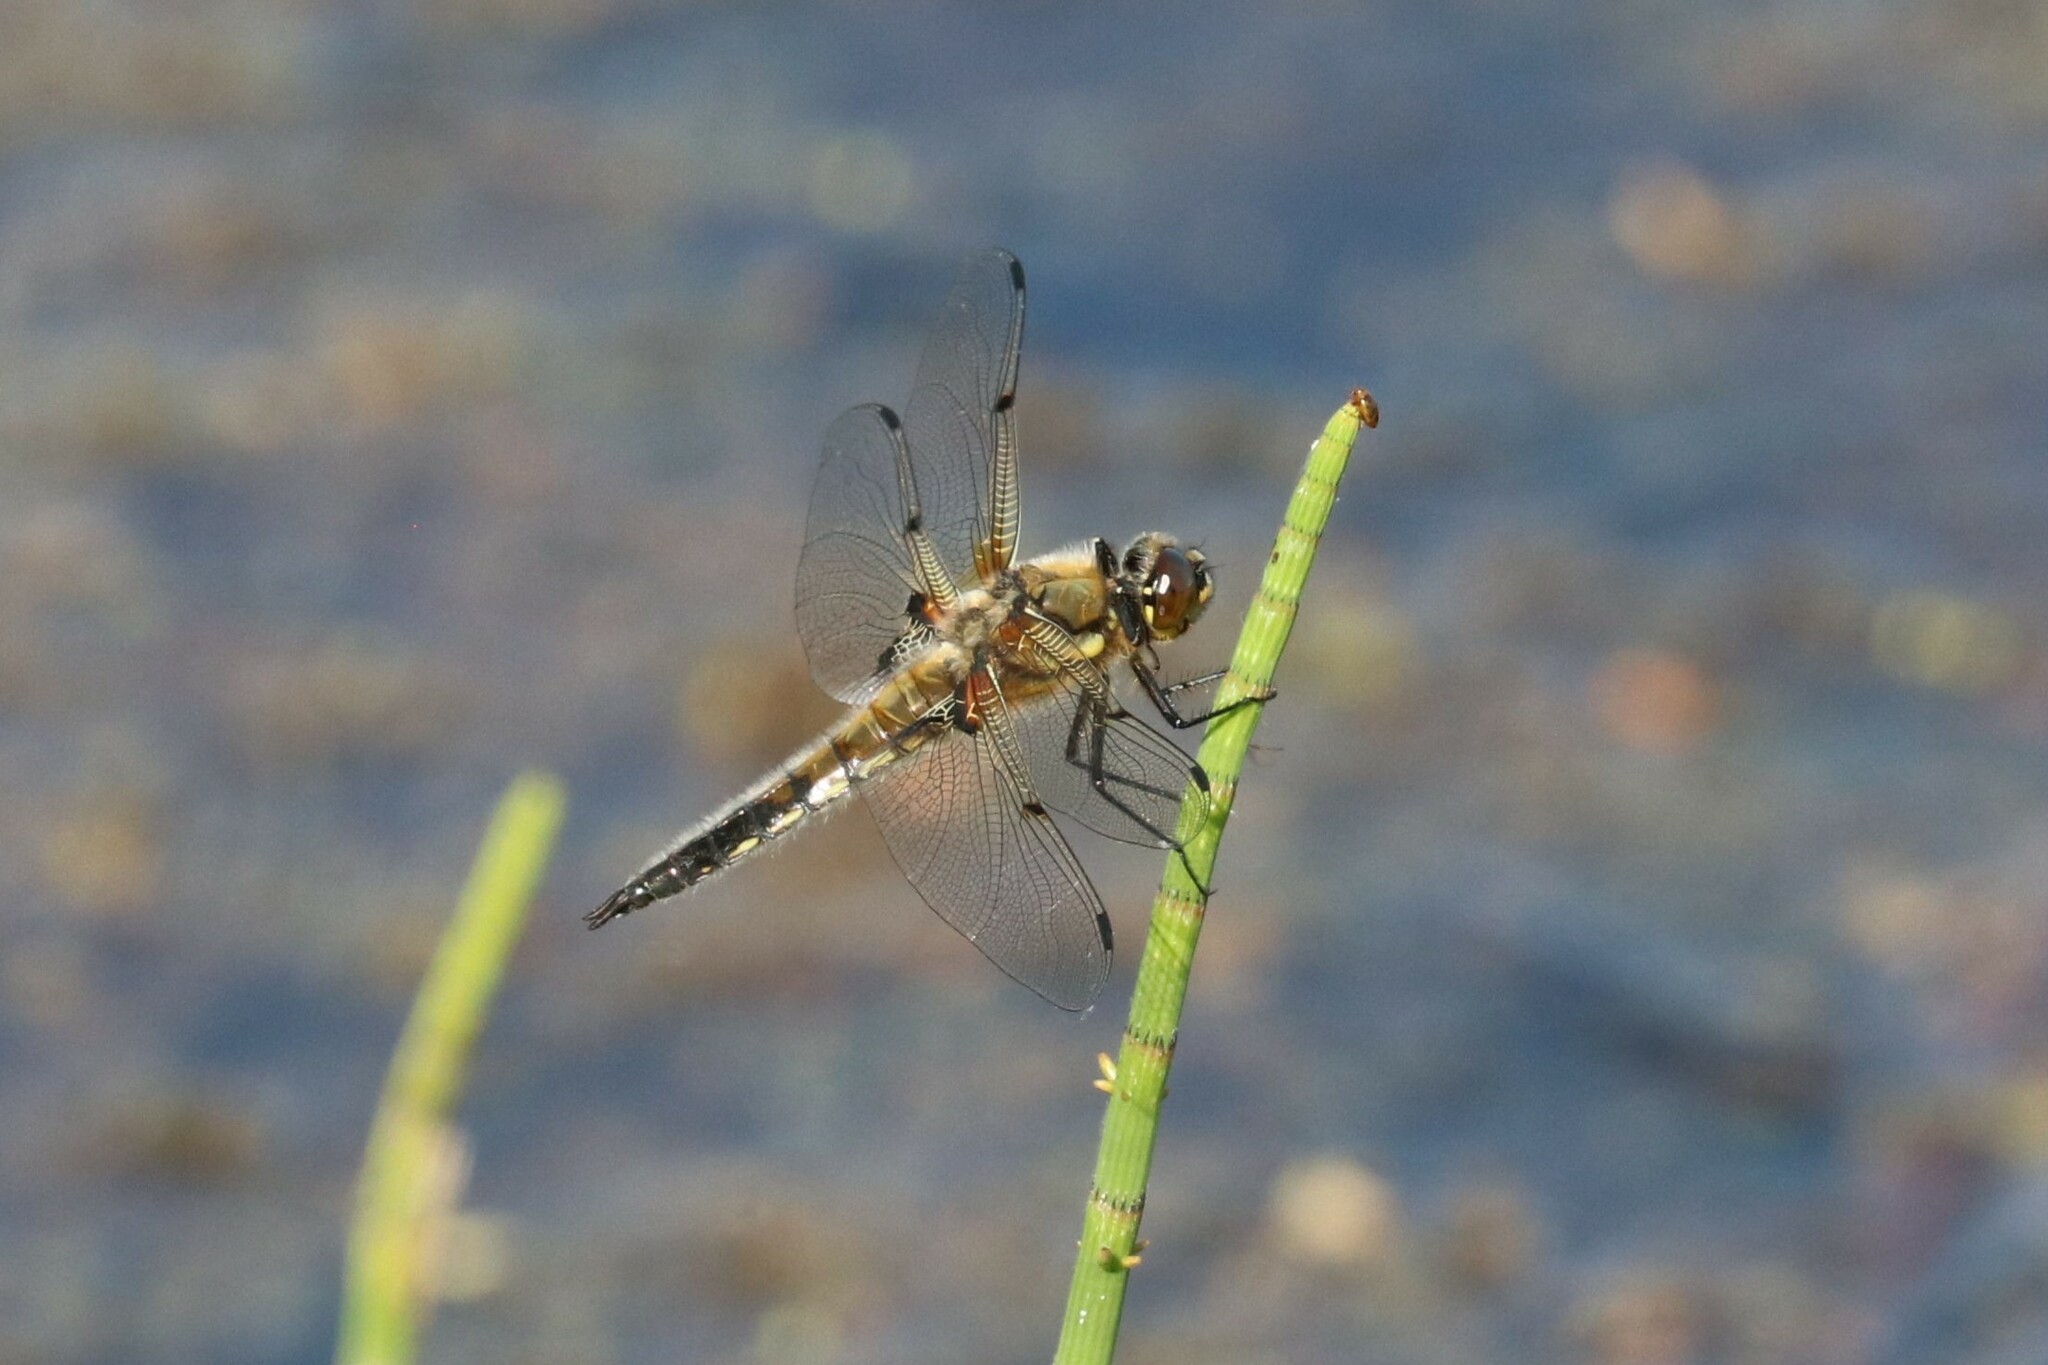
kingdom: Animalia
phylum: Arthropoda
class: Insecta
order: Odonata
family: Libellulidae
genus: Libellula
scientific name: Libellula quadrimaculata
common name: Four-spotted chaser
